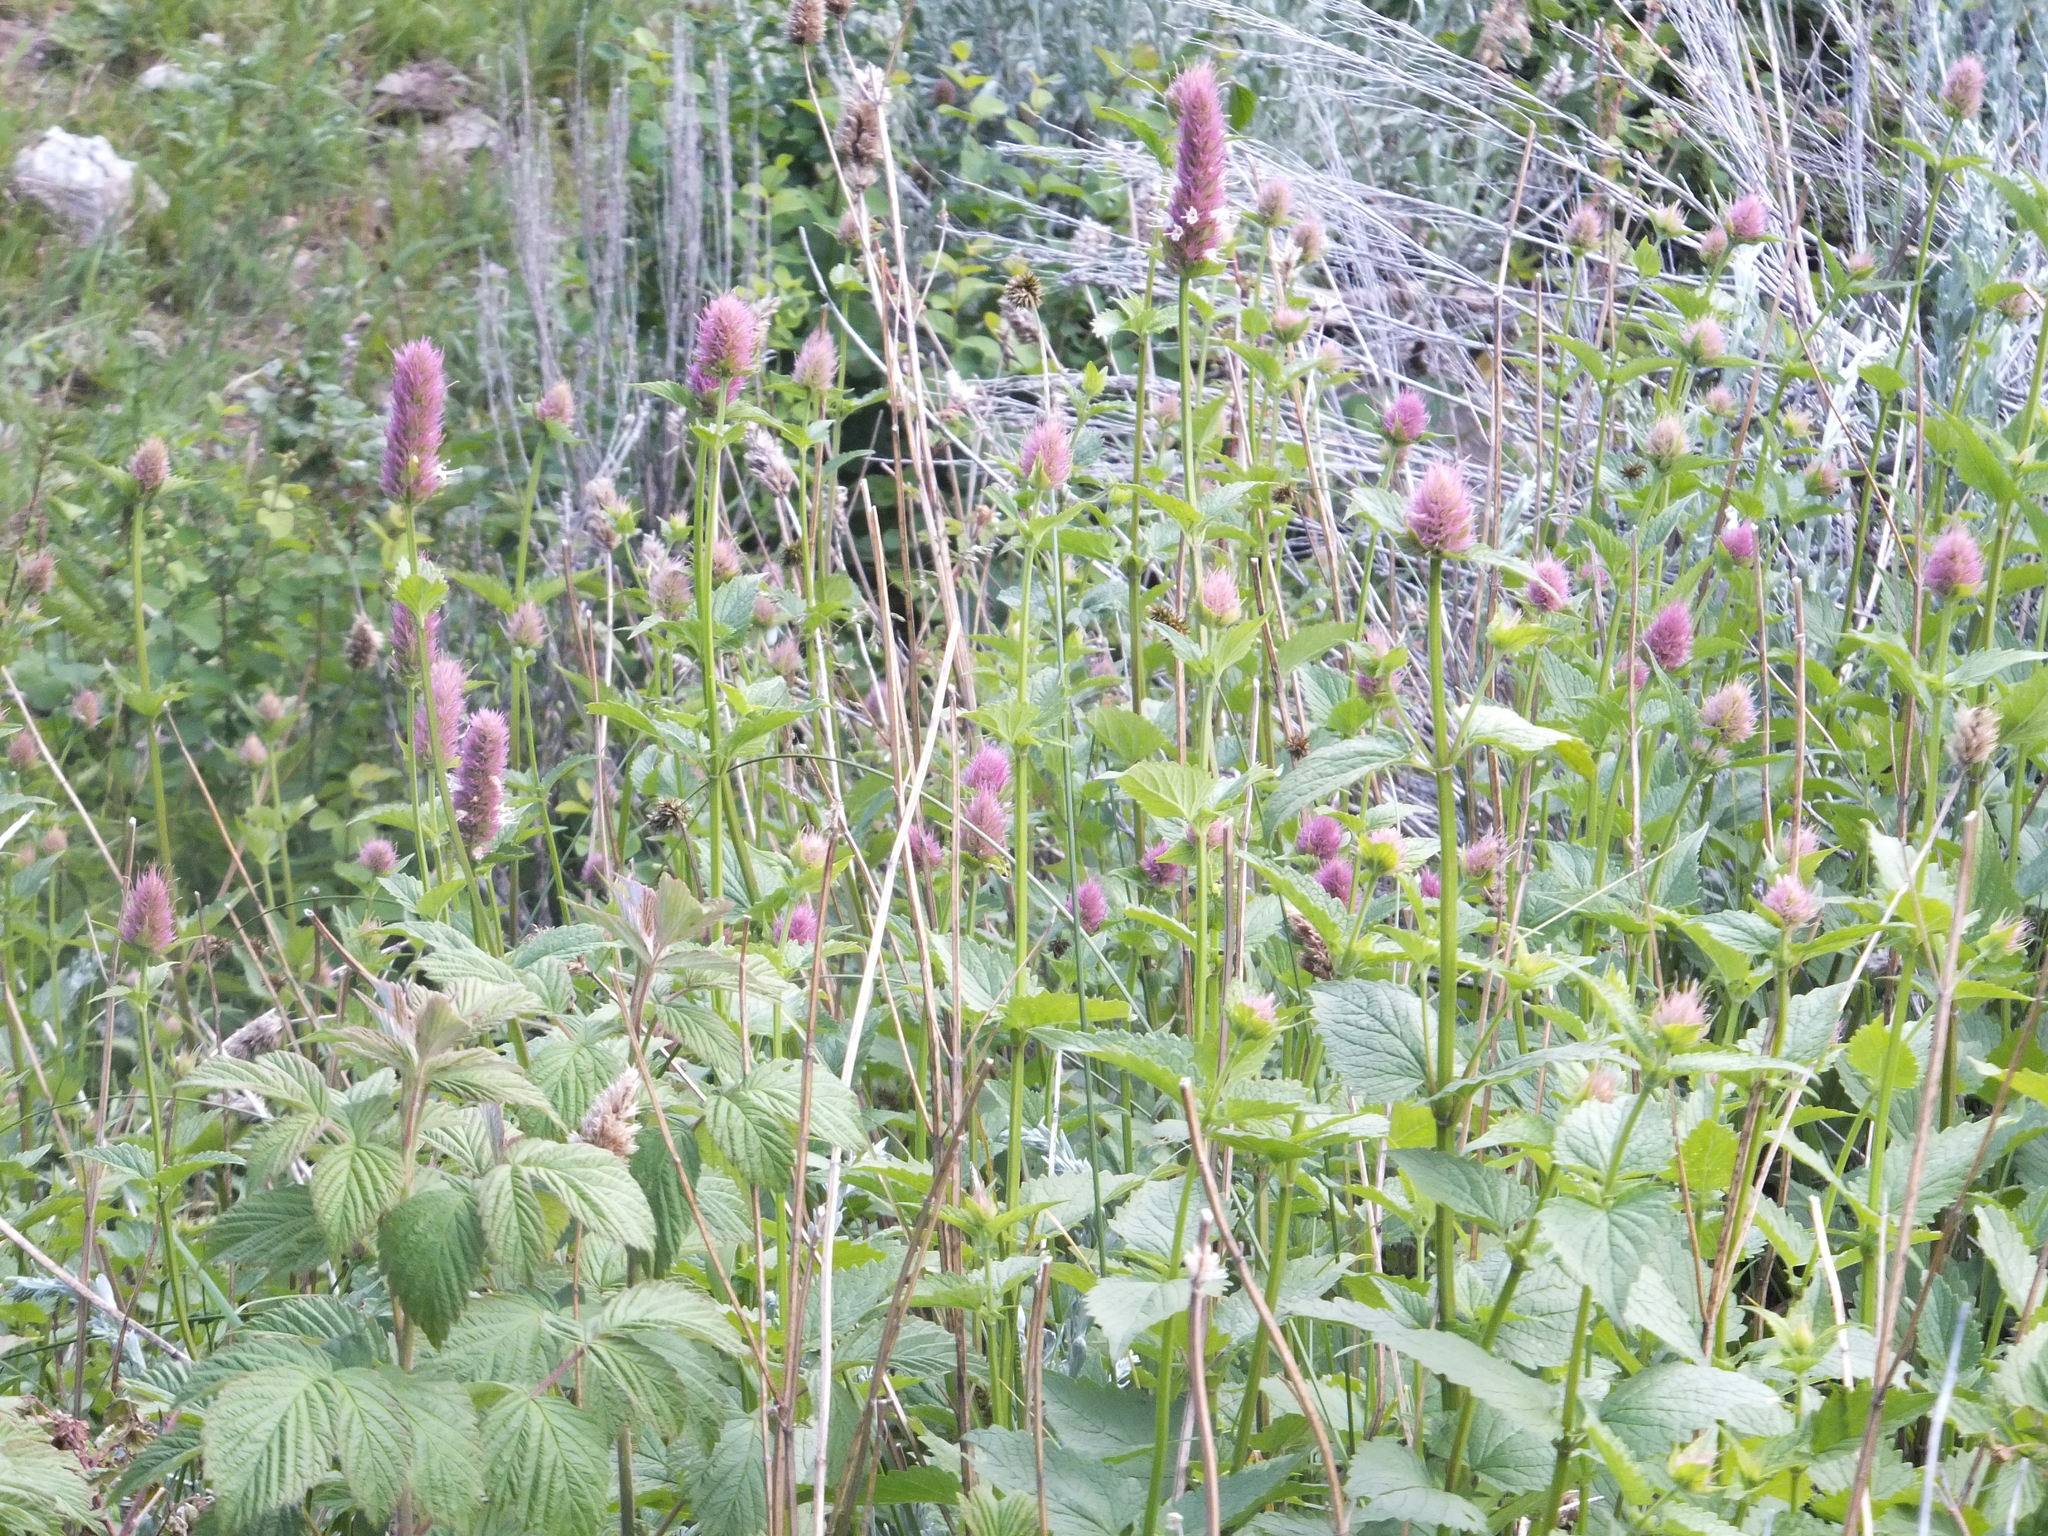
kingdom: Plantae
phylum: Tracheophyta
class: Magnoliopsida
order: Lamiales
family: Lamiaceae
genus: Agastache
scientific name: Agastache urticifolia
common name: Horsemint giant hyssop
